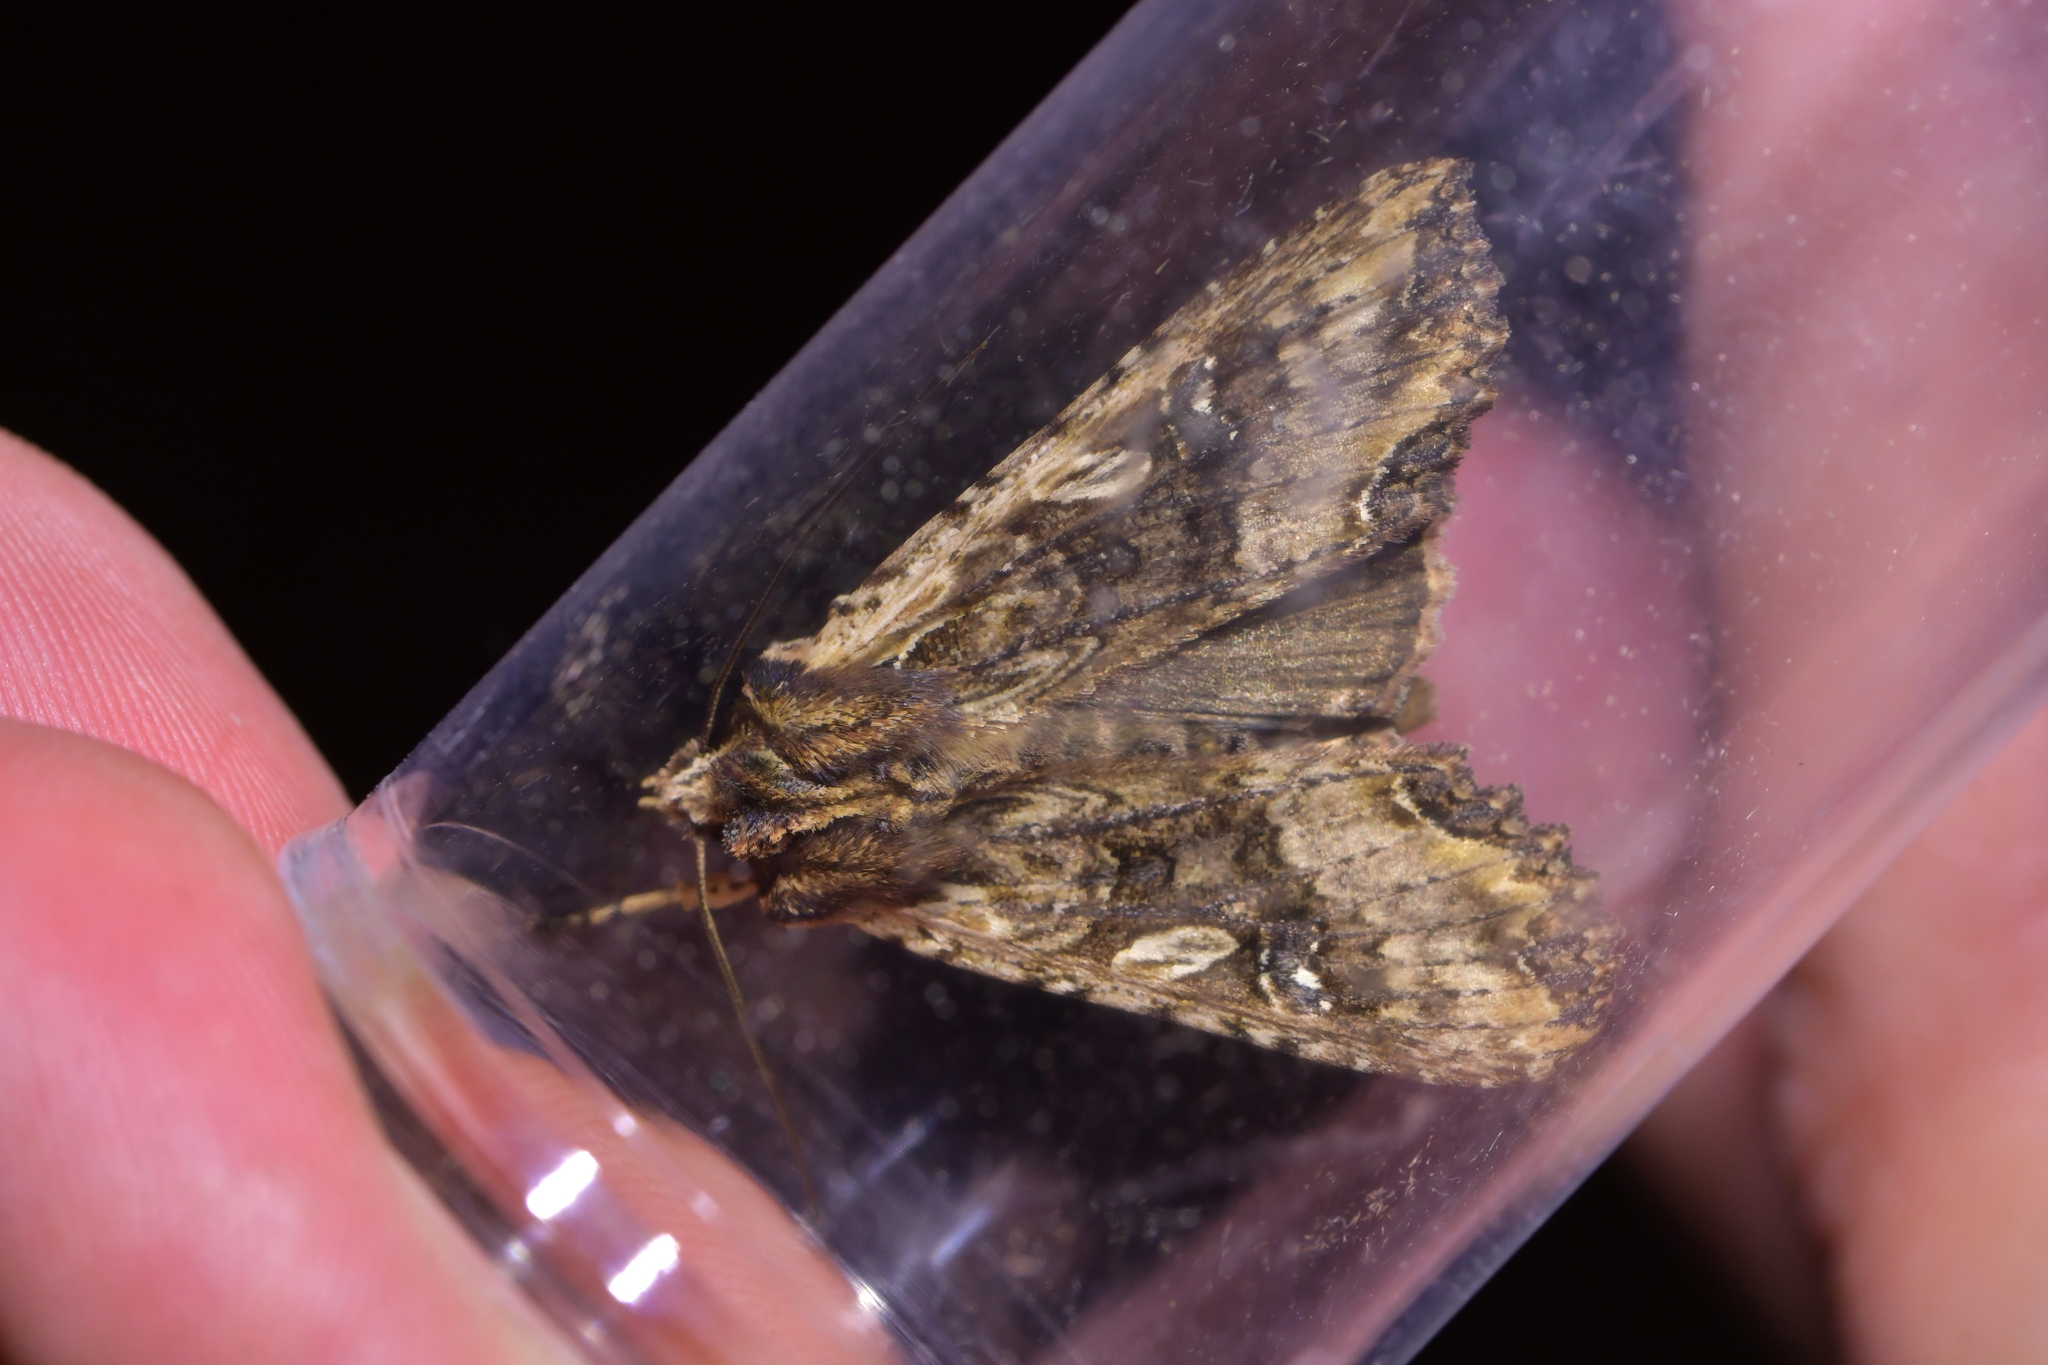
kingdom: Animalia
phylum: Arthropoda
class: Insecta
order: Lepidoptera
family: Noctuidae
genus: Meterana
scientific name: Meterana stipata
